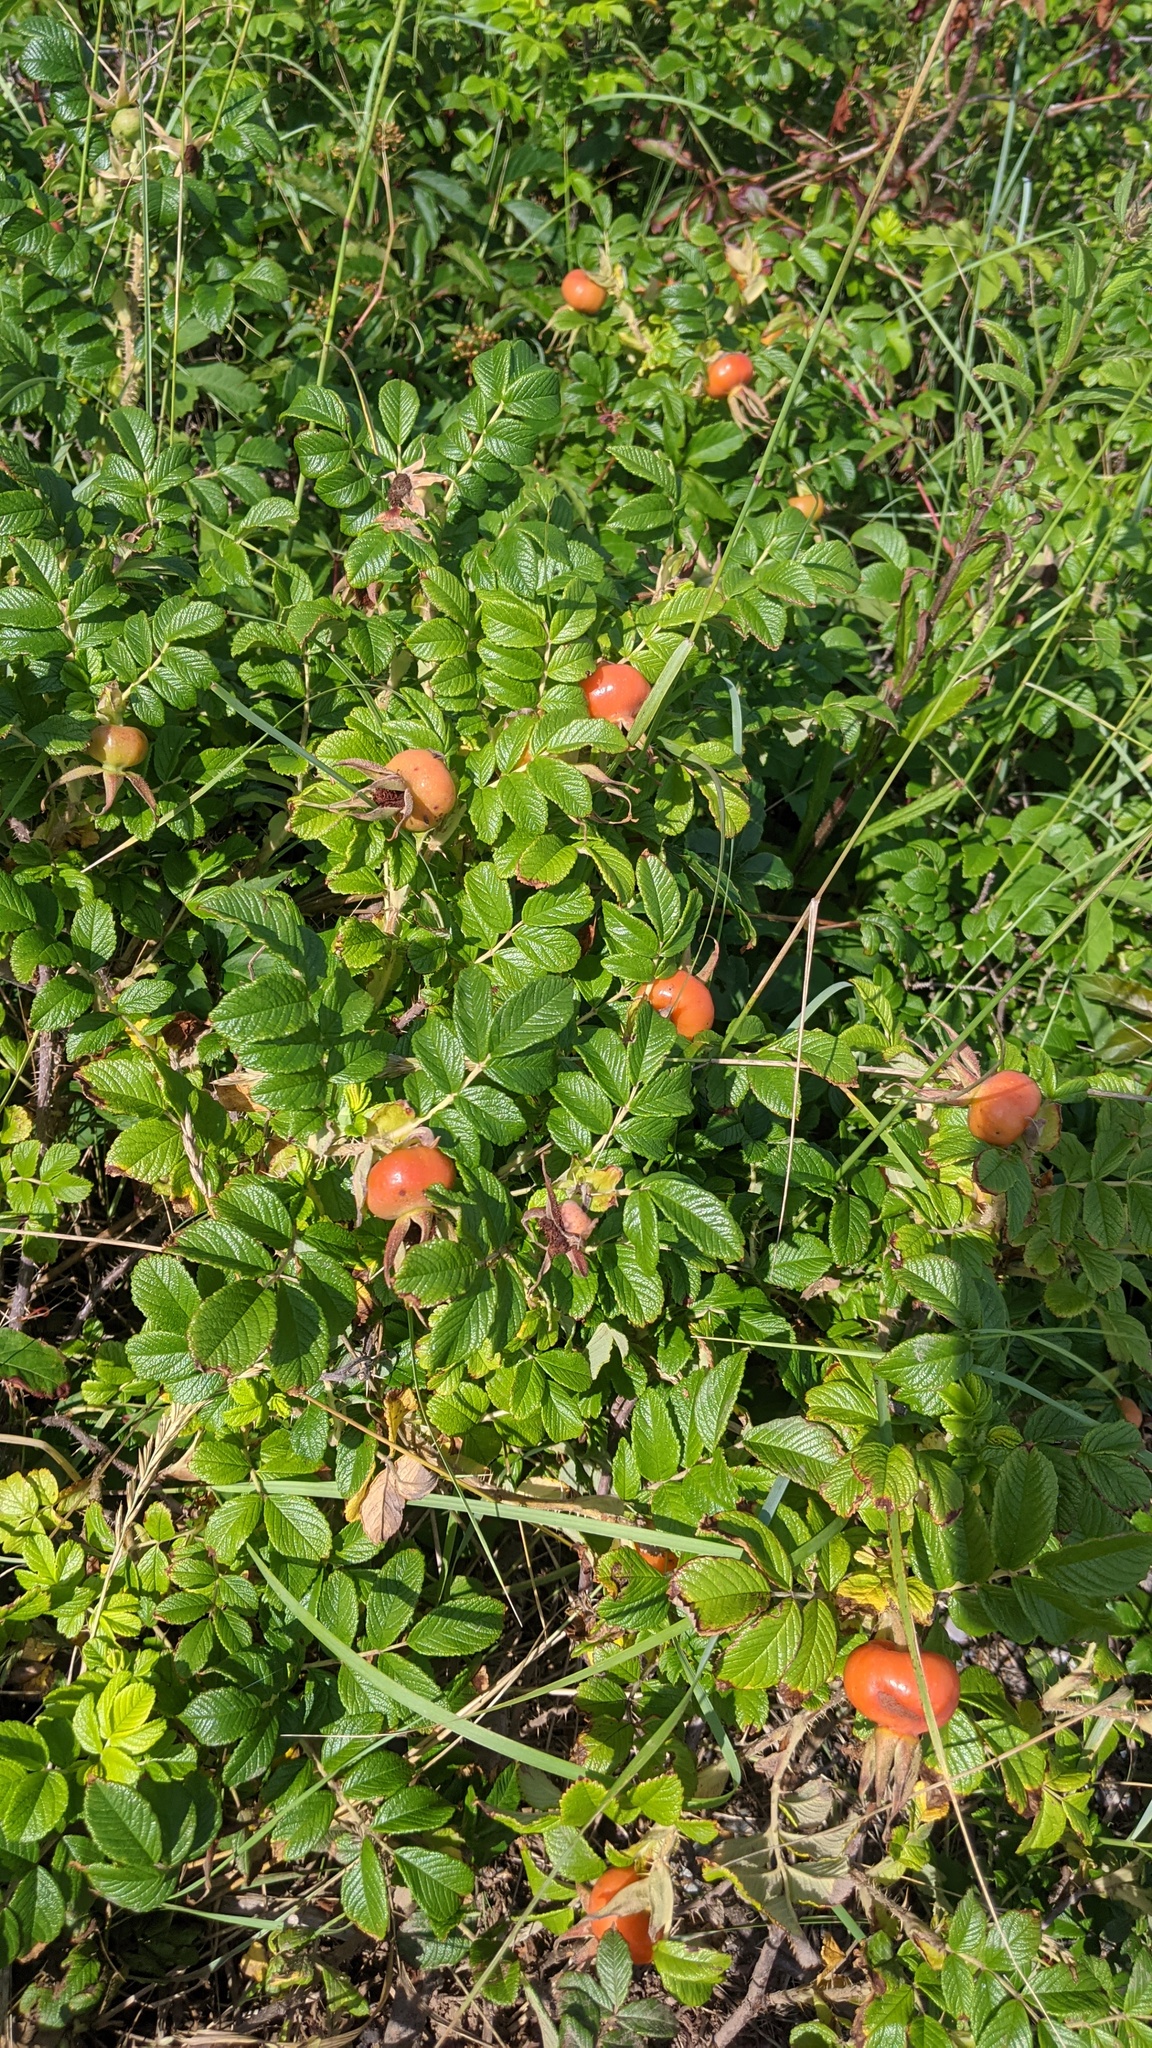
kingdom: Plantae
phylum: Tracheophyta
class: Magnoliopsida
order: Rosales
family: Rosaceae
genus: Rosa
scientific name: Rosa rugosa
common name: Japanese rose
